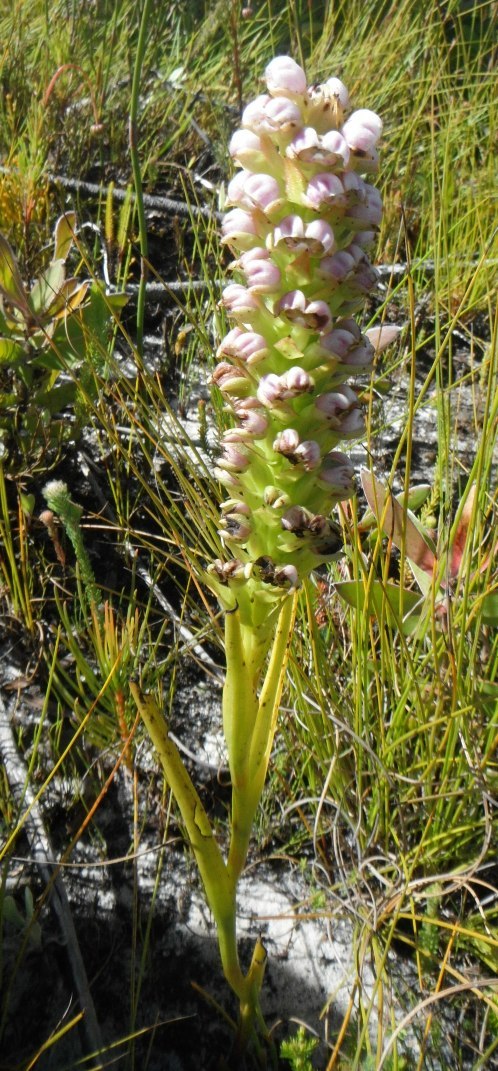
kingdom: Plantae
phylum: Tracheophyta
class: Liliopsida
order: Asparagales
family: Orchidaceae
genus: Evotella
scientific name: Evotella carnosa
